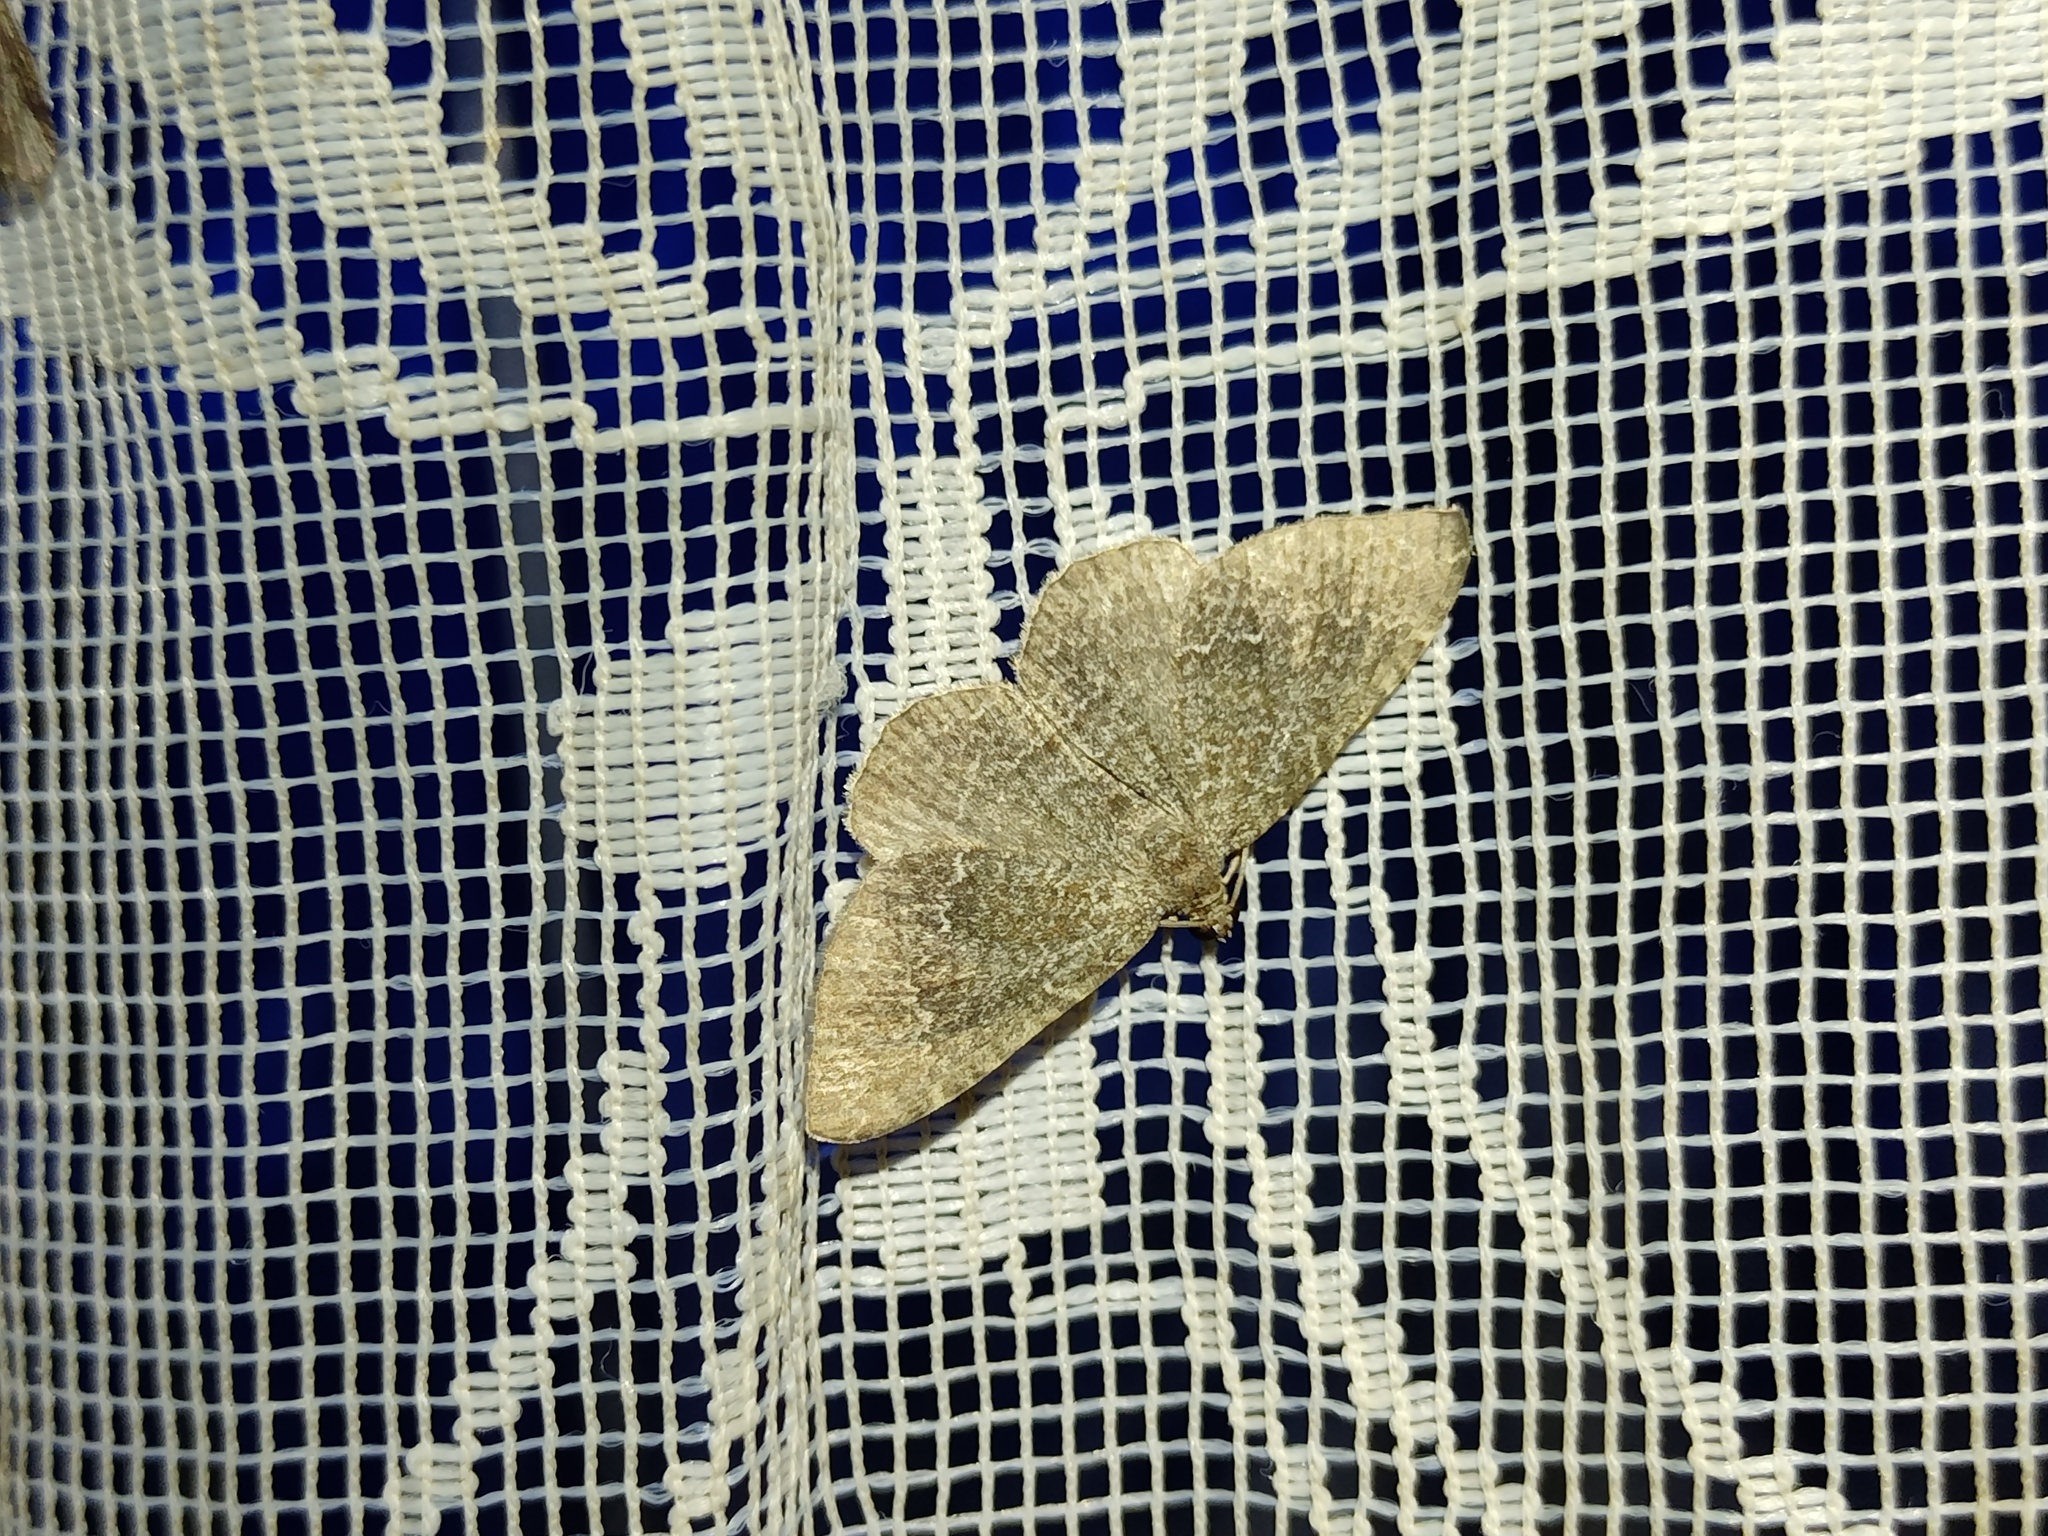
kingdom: Animalia
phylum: Arthropoda
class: Insecta
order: Lepidoptera
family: Geometridae
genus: Cataclysme
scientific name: Cataclysme riguata
